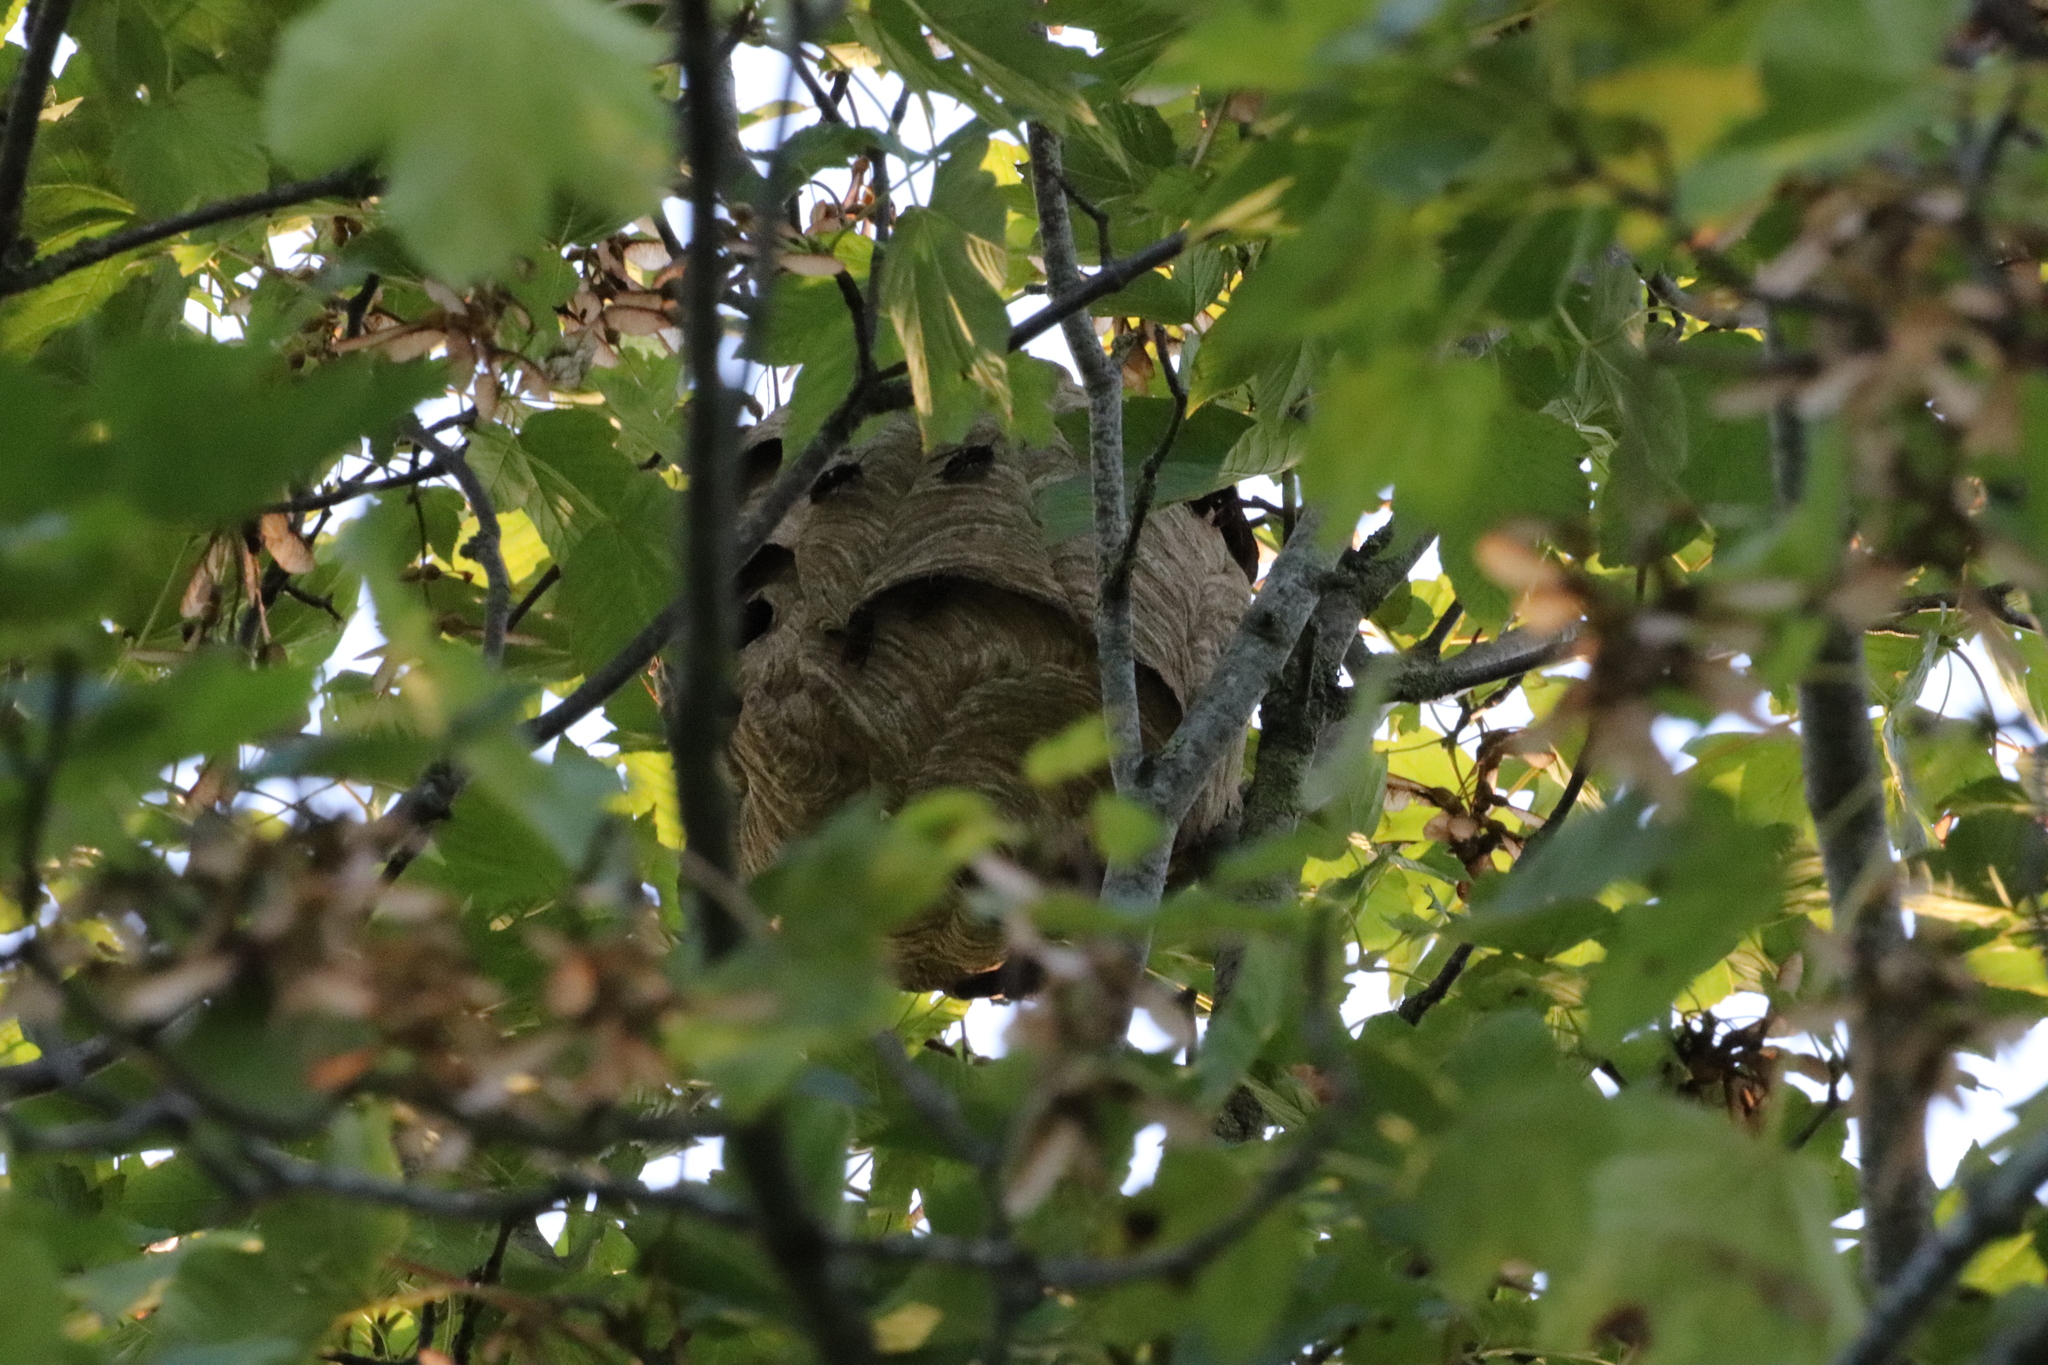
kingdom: Animalia
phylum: Arthropoda
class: Insecta
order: Hymenoptera
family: Vespidae
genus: Vespa
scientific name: Vespa velutina
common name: Asian hornet
